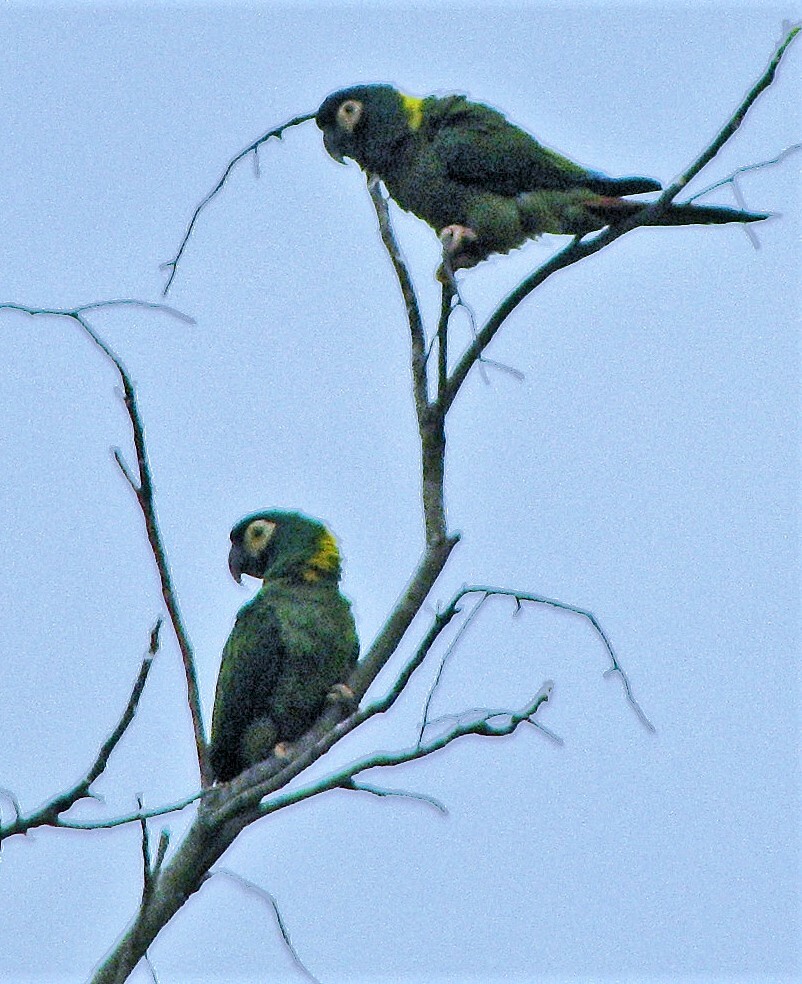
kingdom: Animalia
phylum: Chordata
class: Aves
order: Psittaciformes
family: Psittacidae
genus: Primolius
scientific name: Primolius auricollis
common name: Golden-collared macaw
